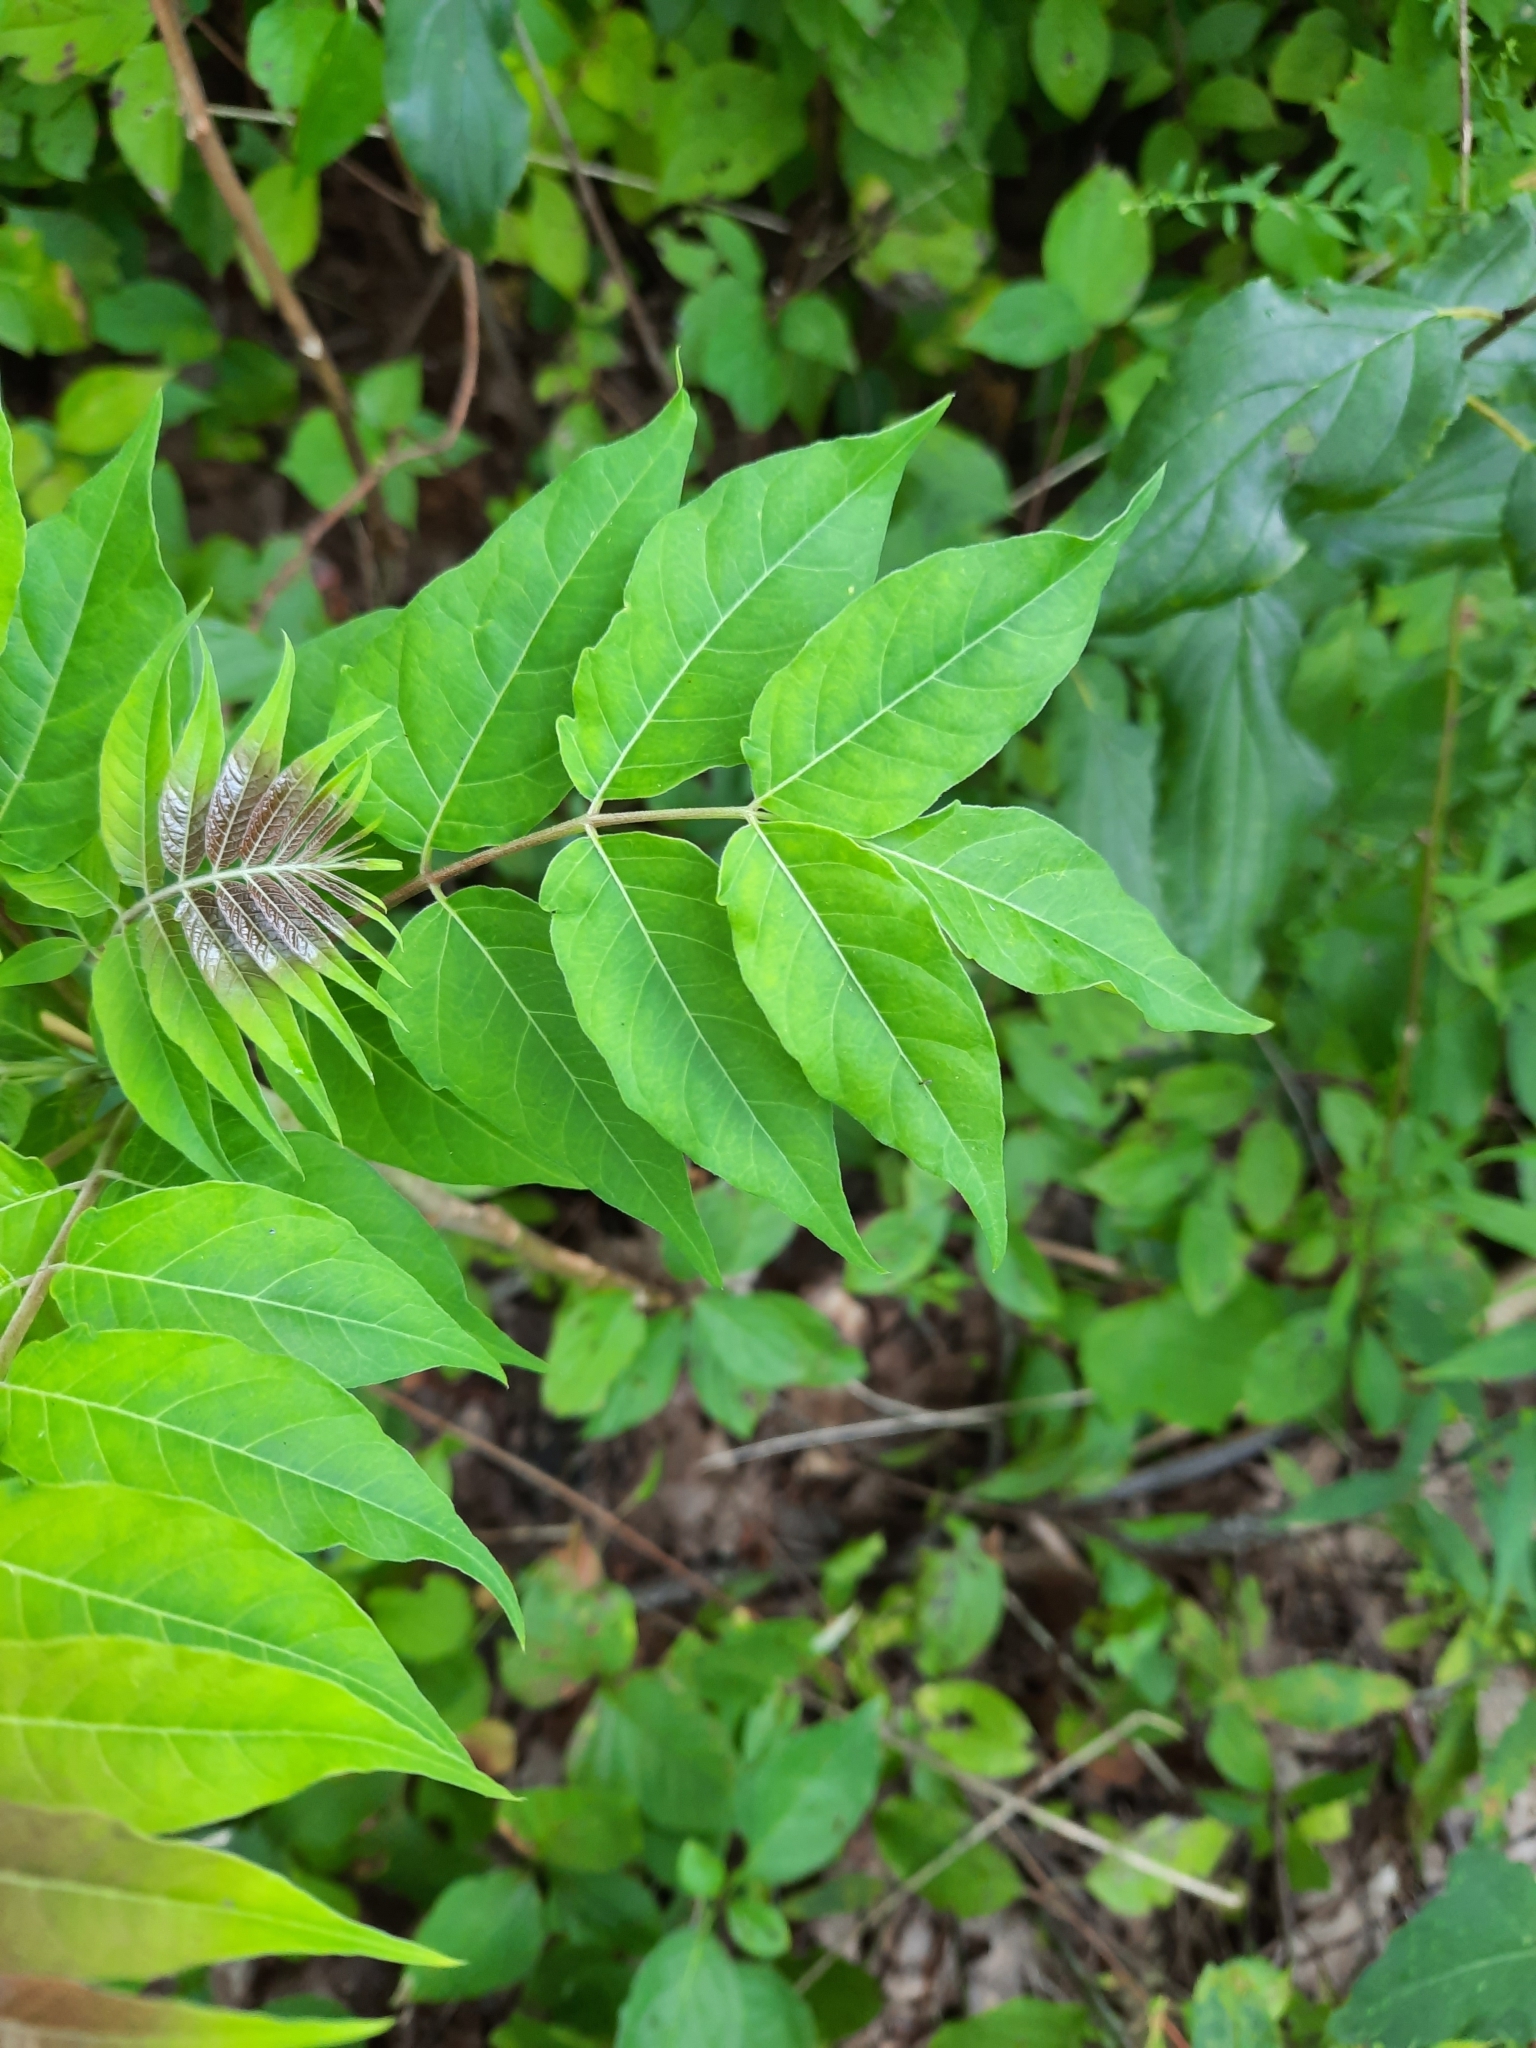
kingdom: Plantae
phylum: Tracheophyta
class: Magnoliopsida
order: Sapindales
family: Simaroubaceae
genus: Ailanthus
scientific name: Ailanthus altissima
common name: Tree-of-heaven
